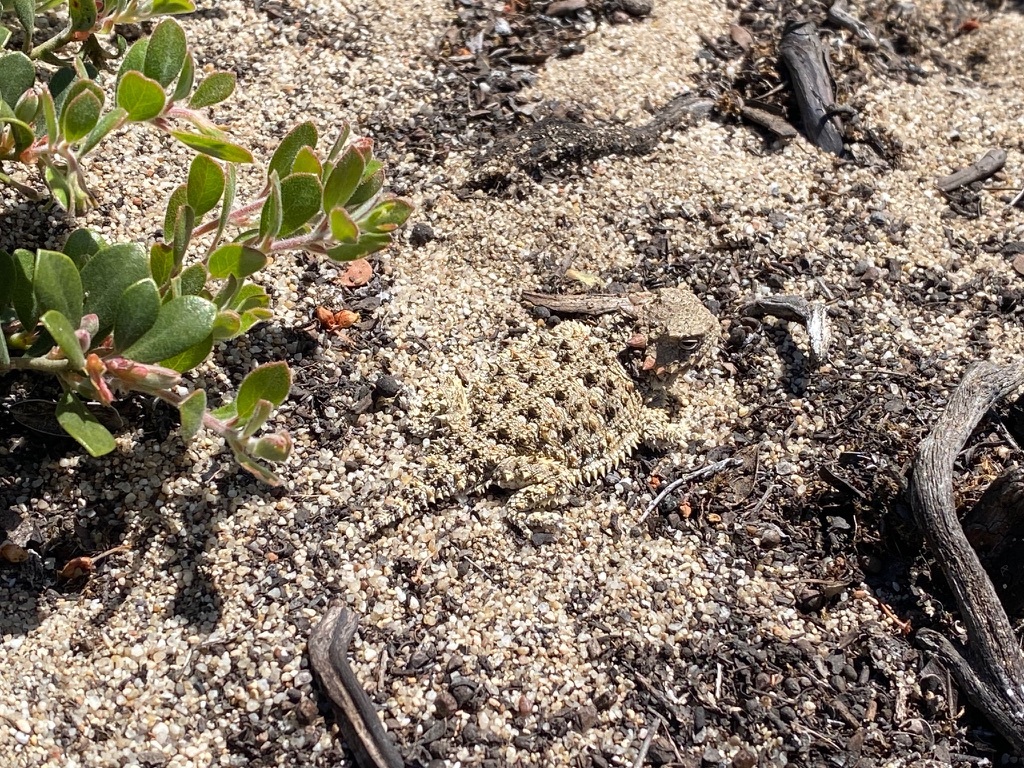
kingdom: Animalia
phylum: Chordata
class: Squamata
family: Phrynosomatidae
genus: Phrynosoma
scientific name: Phrynosoma blainvillii
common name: San diego horned lizard
